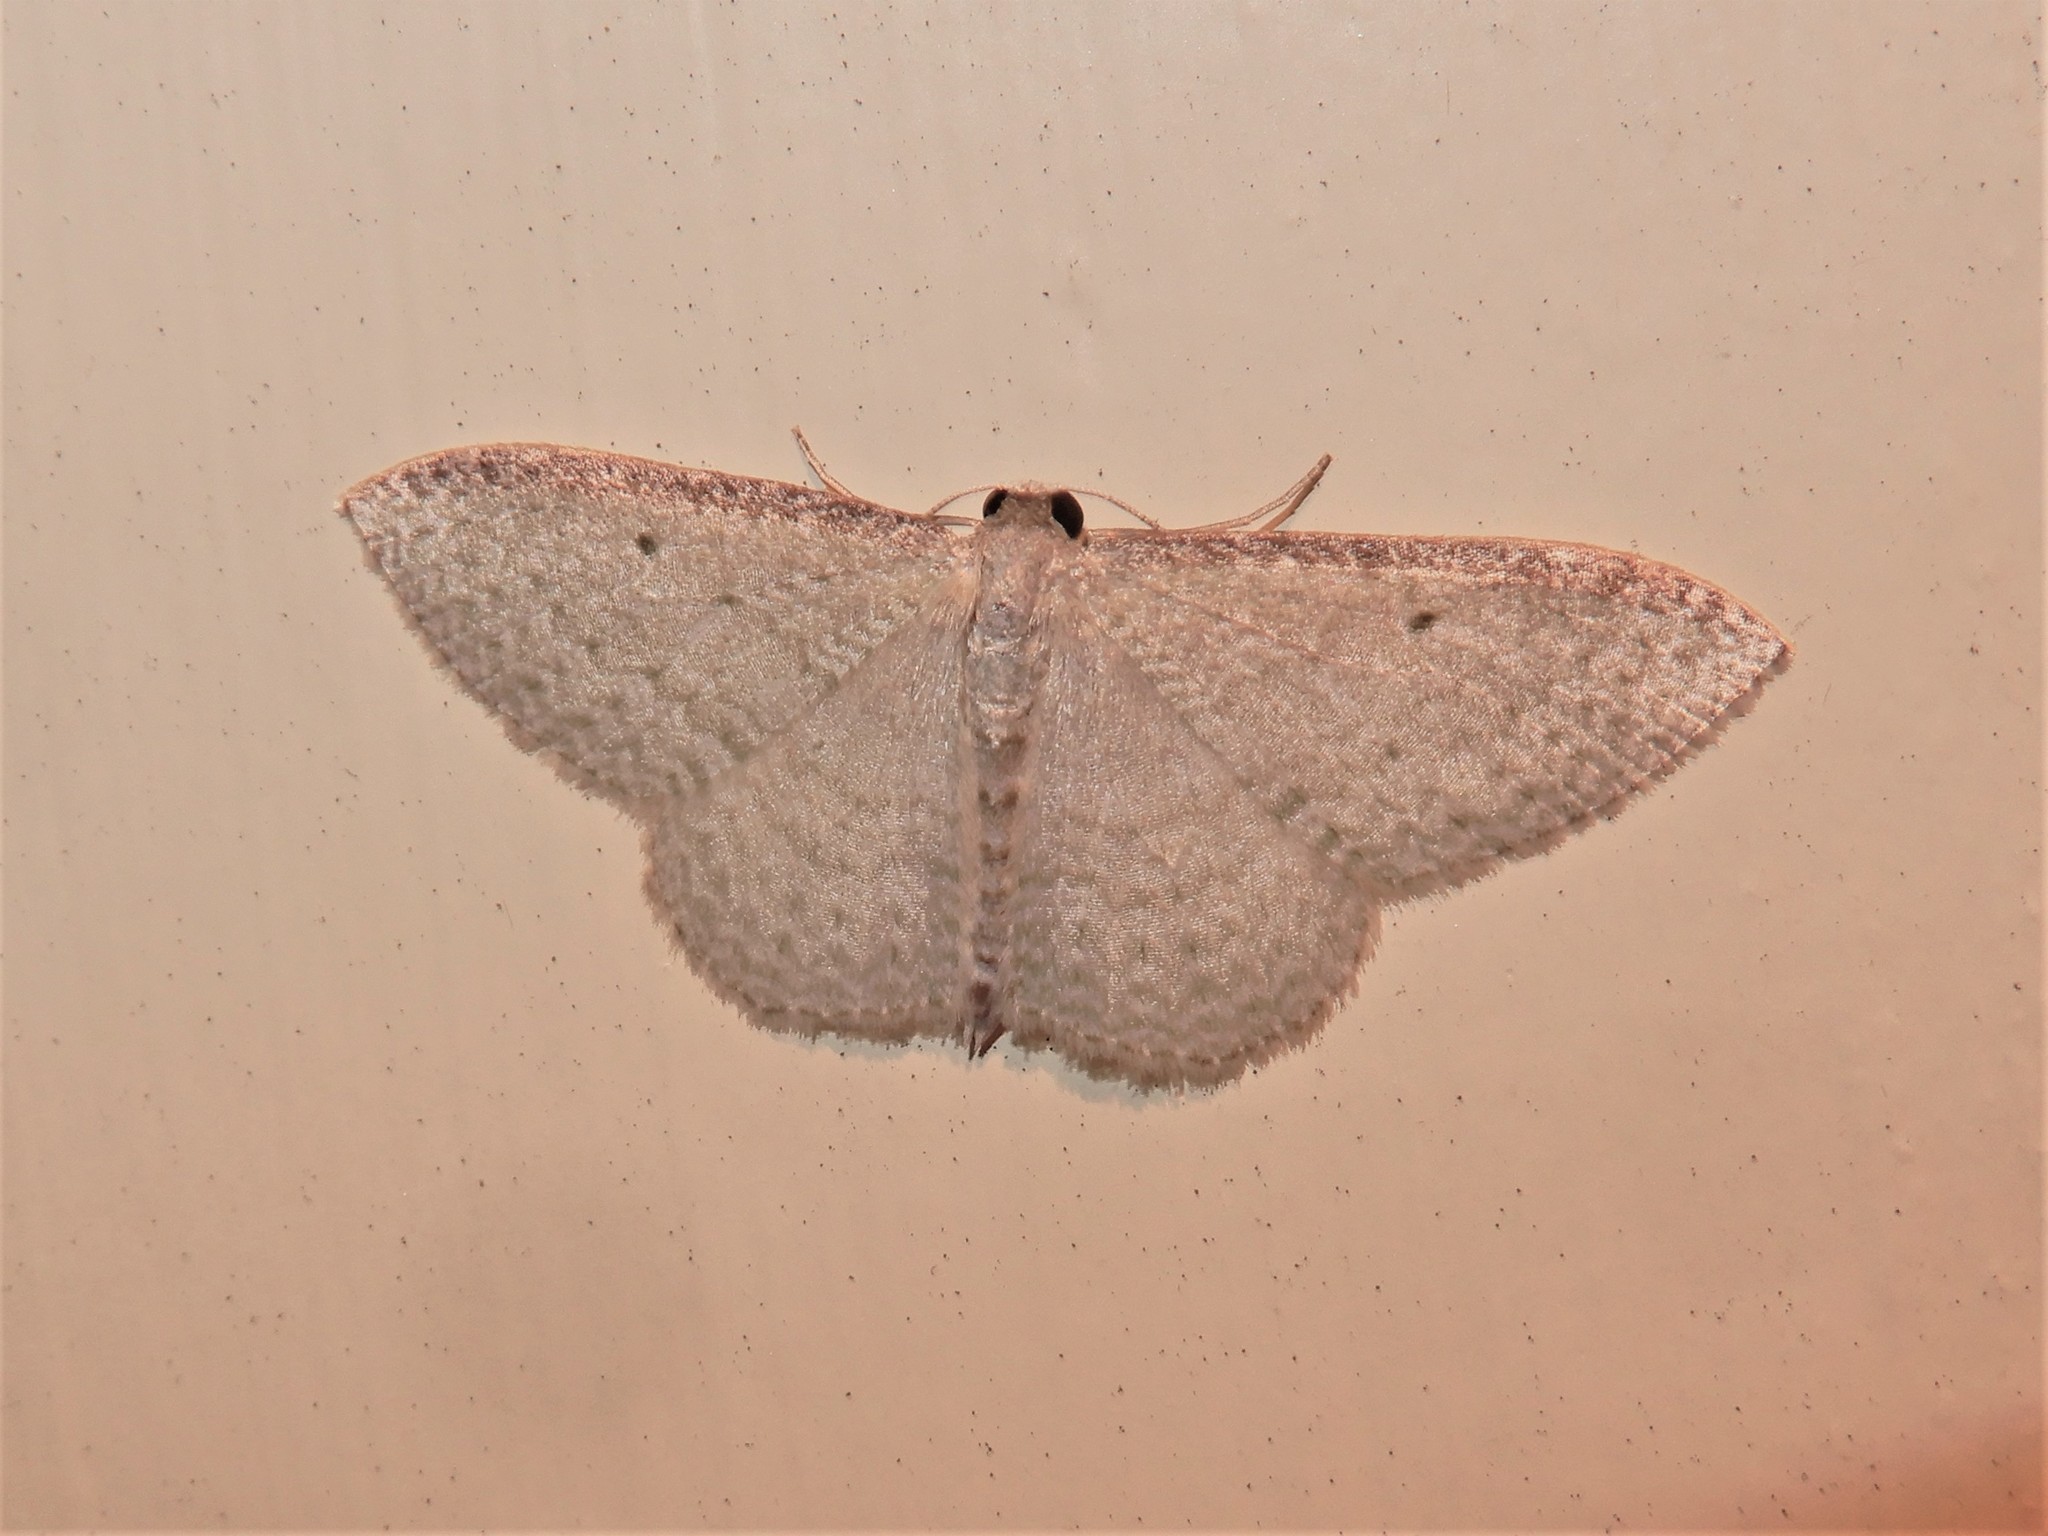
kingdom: Animalia
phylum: Arthropoda
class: Insecta
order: Lepidoptera
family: Geometridae
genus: Poecilasthena
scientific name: Poecilasthena pulchraria
